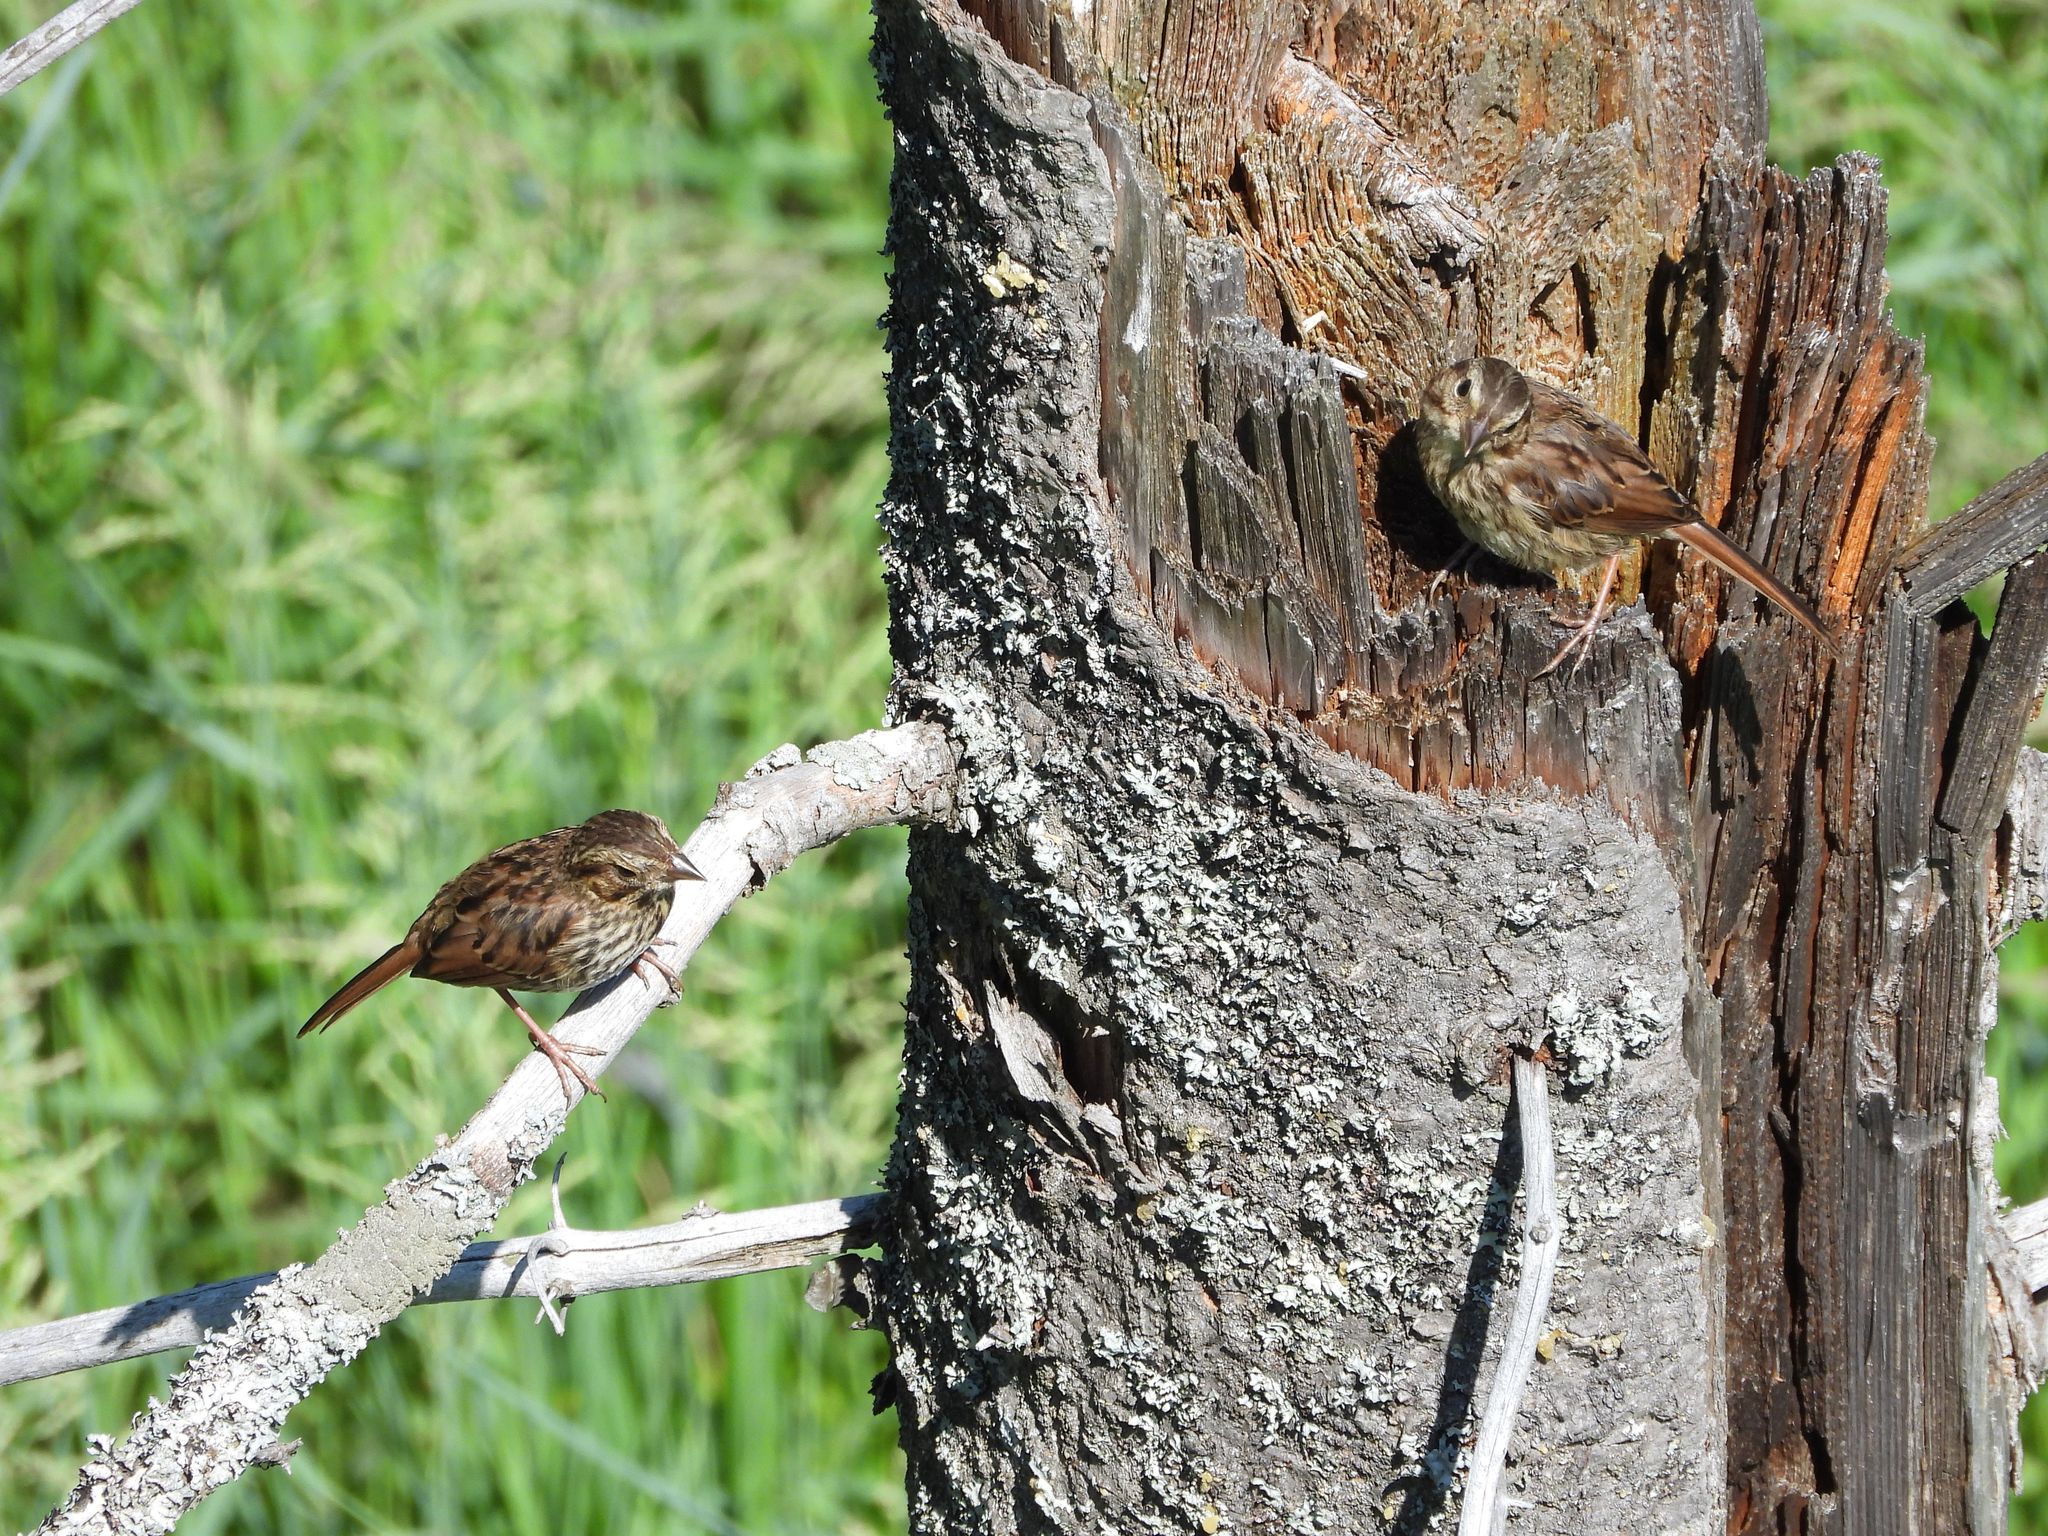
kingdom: Animalia
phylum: Chordata
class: Aves
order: Passeriformes
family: Passerellidae
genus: Melospiza
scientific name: Melospiza melodia
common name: Song sparrow
